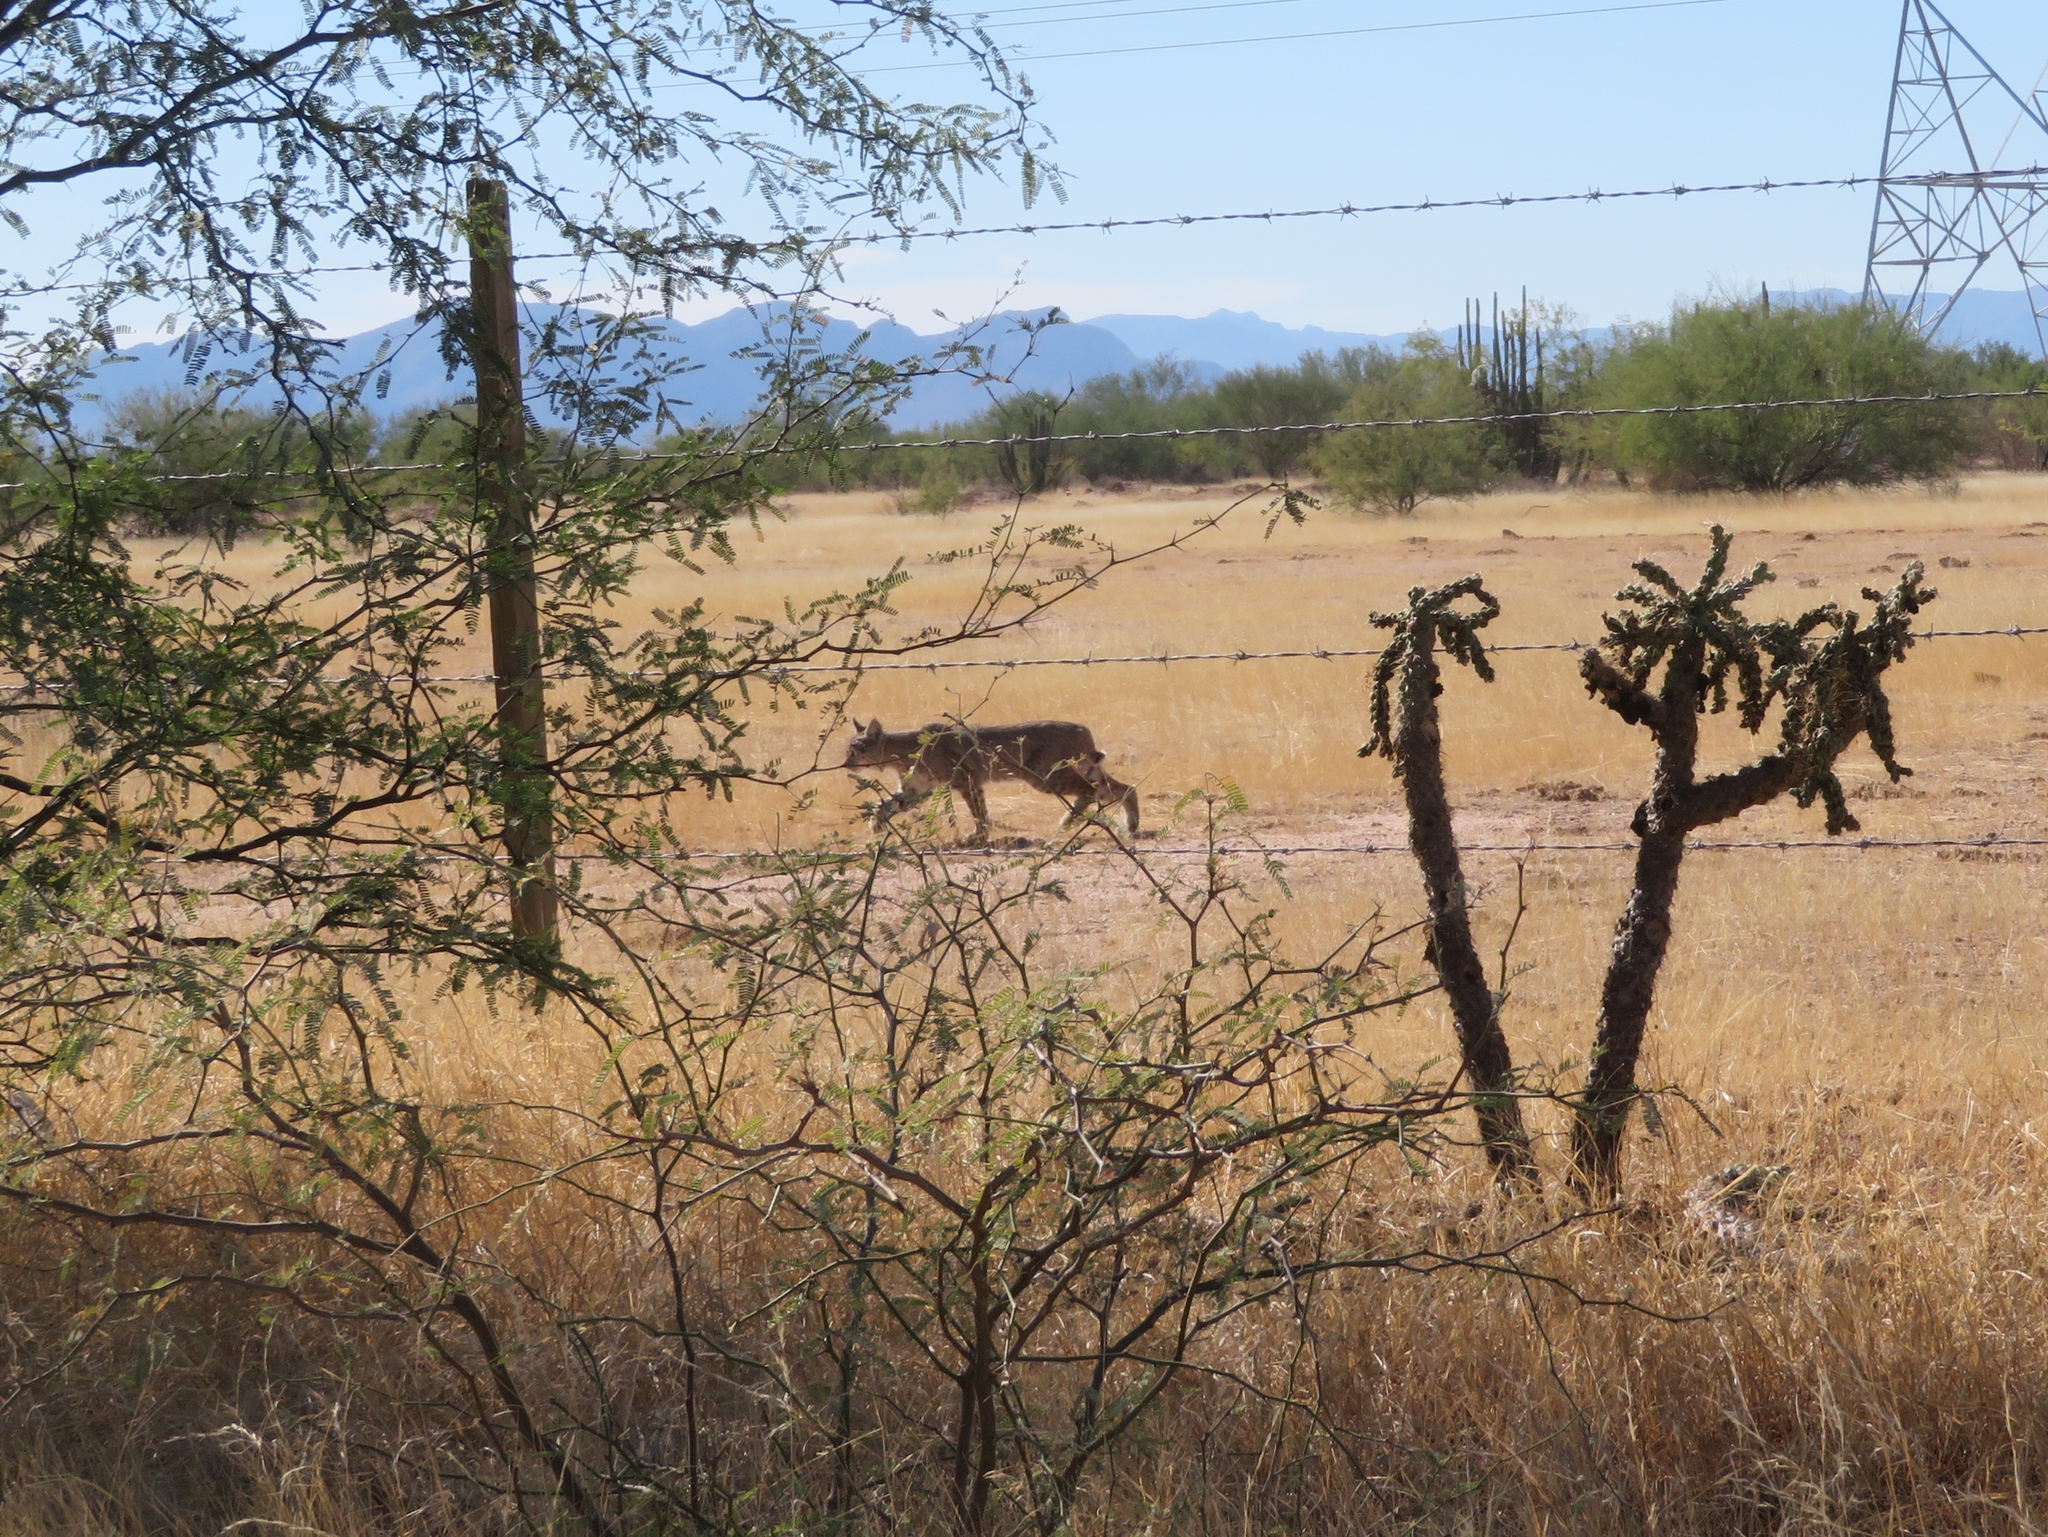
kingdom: Animalia
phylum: Chordata
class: Mammalia
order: Carnivora
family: Felidae
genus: Lynx
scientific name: Lynx rufus
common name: Bobcat
